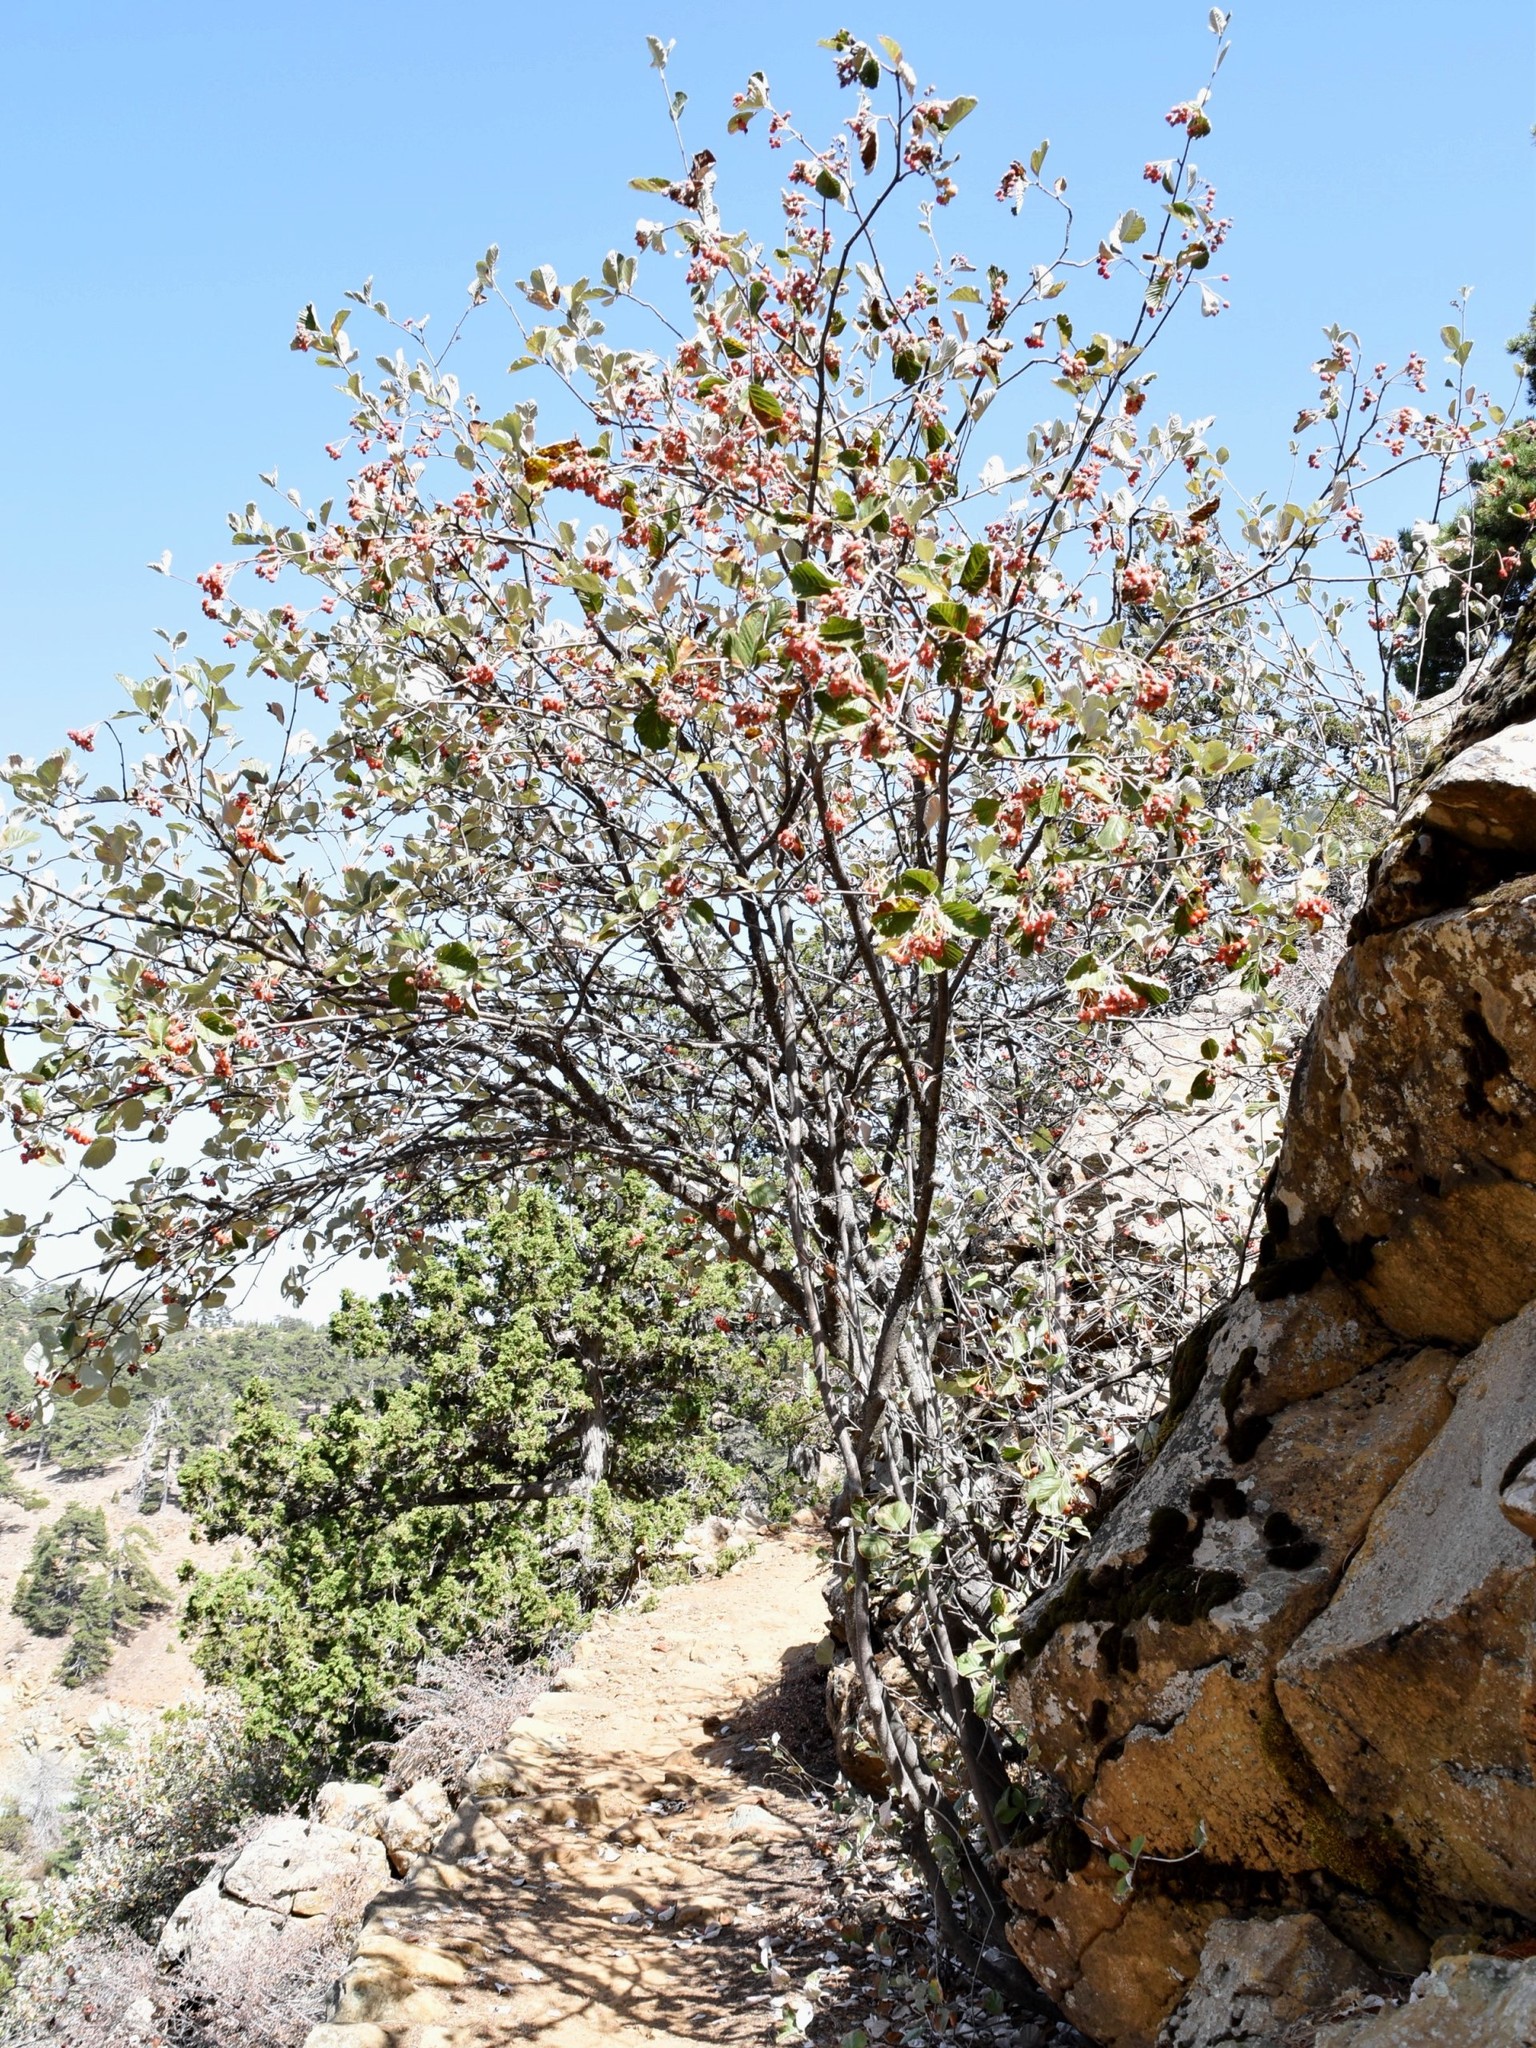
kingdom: Plantae
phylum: Tracheophyta
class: Magnoliopsida
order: Rosales
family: Rosaceae
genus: Aria
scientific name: Aria graeca
